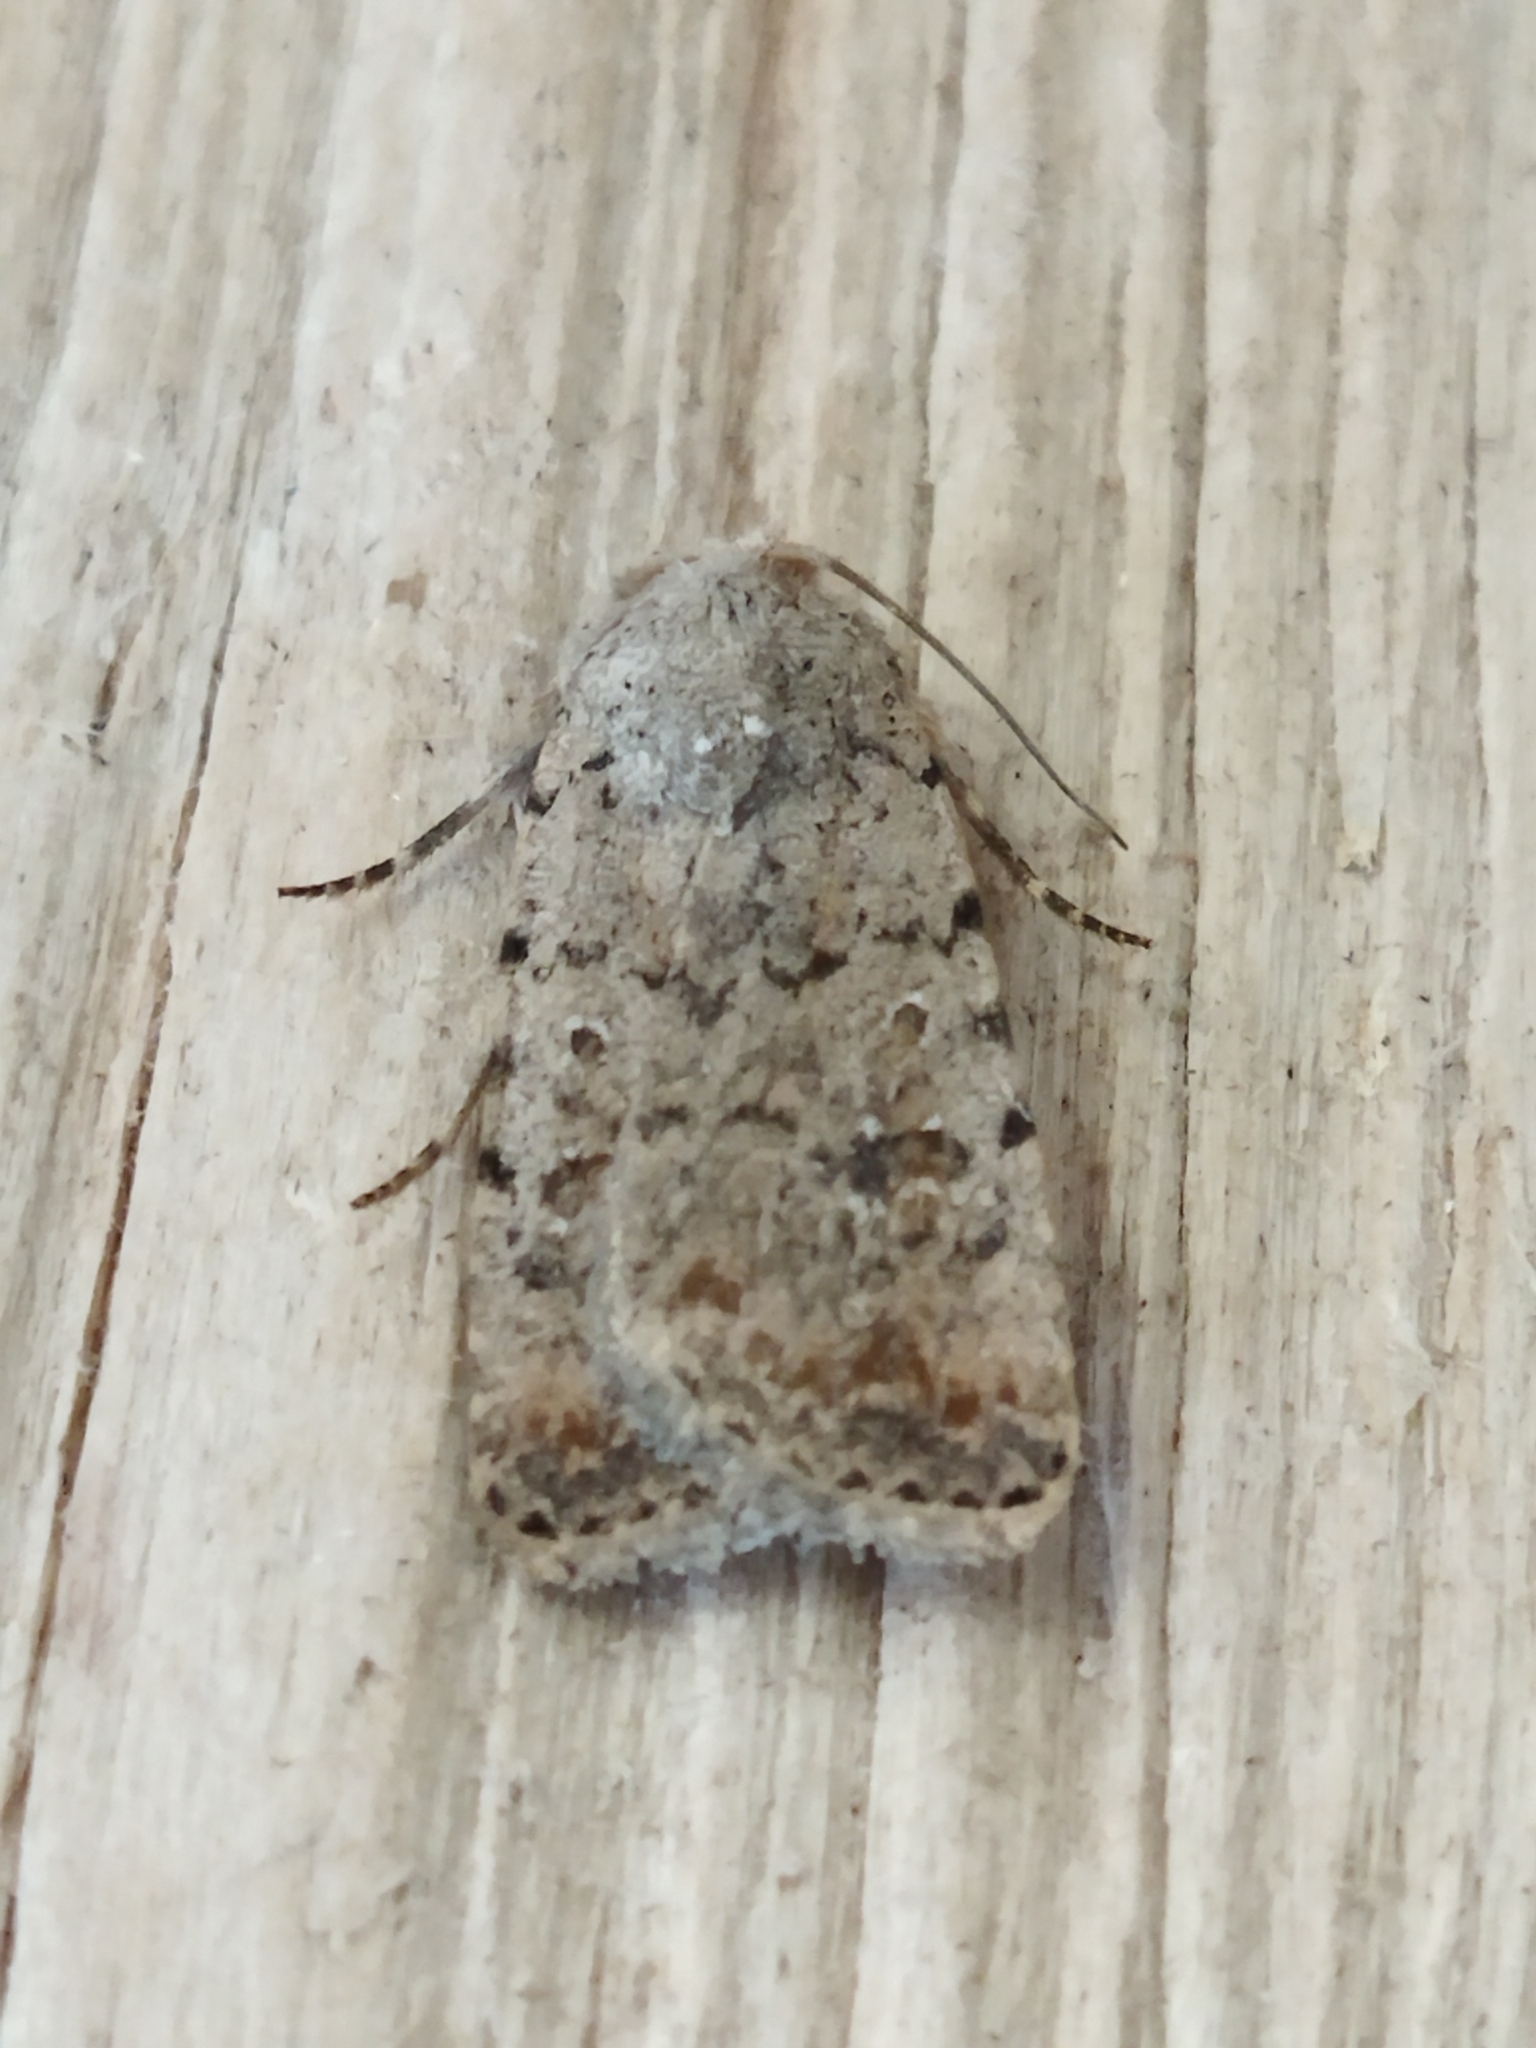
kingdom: Animalia
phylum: Arthropoda
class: Insecta
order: Lepidoptera
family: Noctuidae
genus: Caradrina
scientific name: Caradrina clavipalpis
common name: Pale mottled willow
